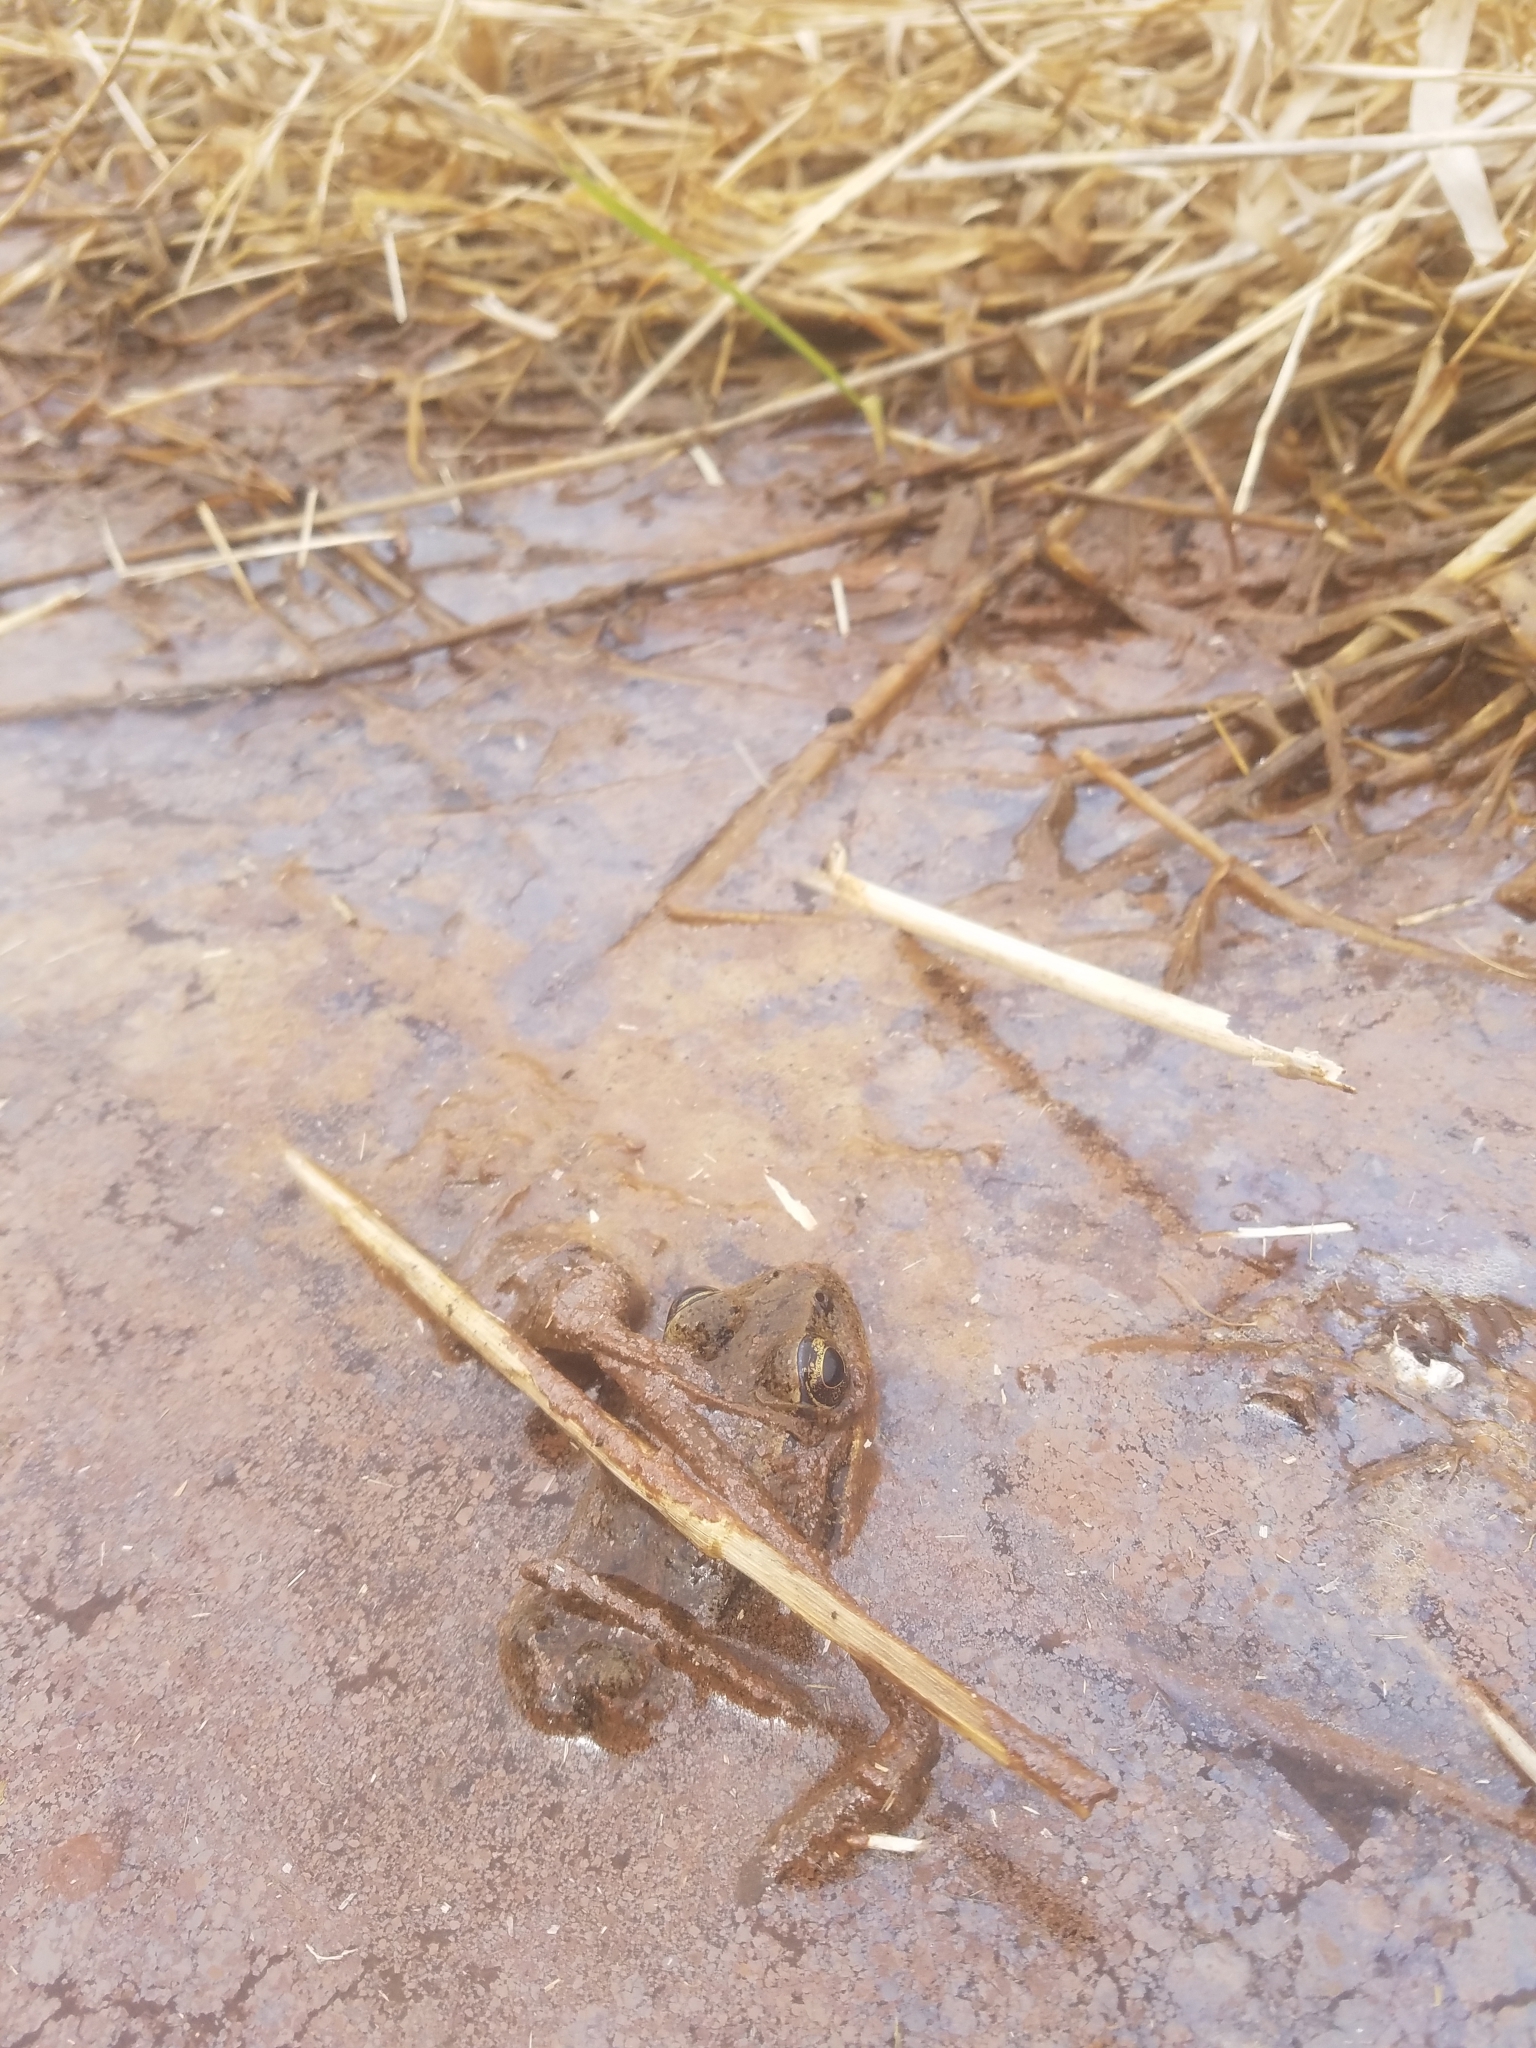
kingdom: Animalia
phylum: Chordata
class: Amphibia
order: Anura
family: Ranidae
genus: Rana
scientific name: Rana aurora
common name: Red-legged frog
